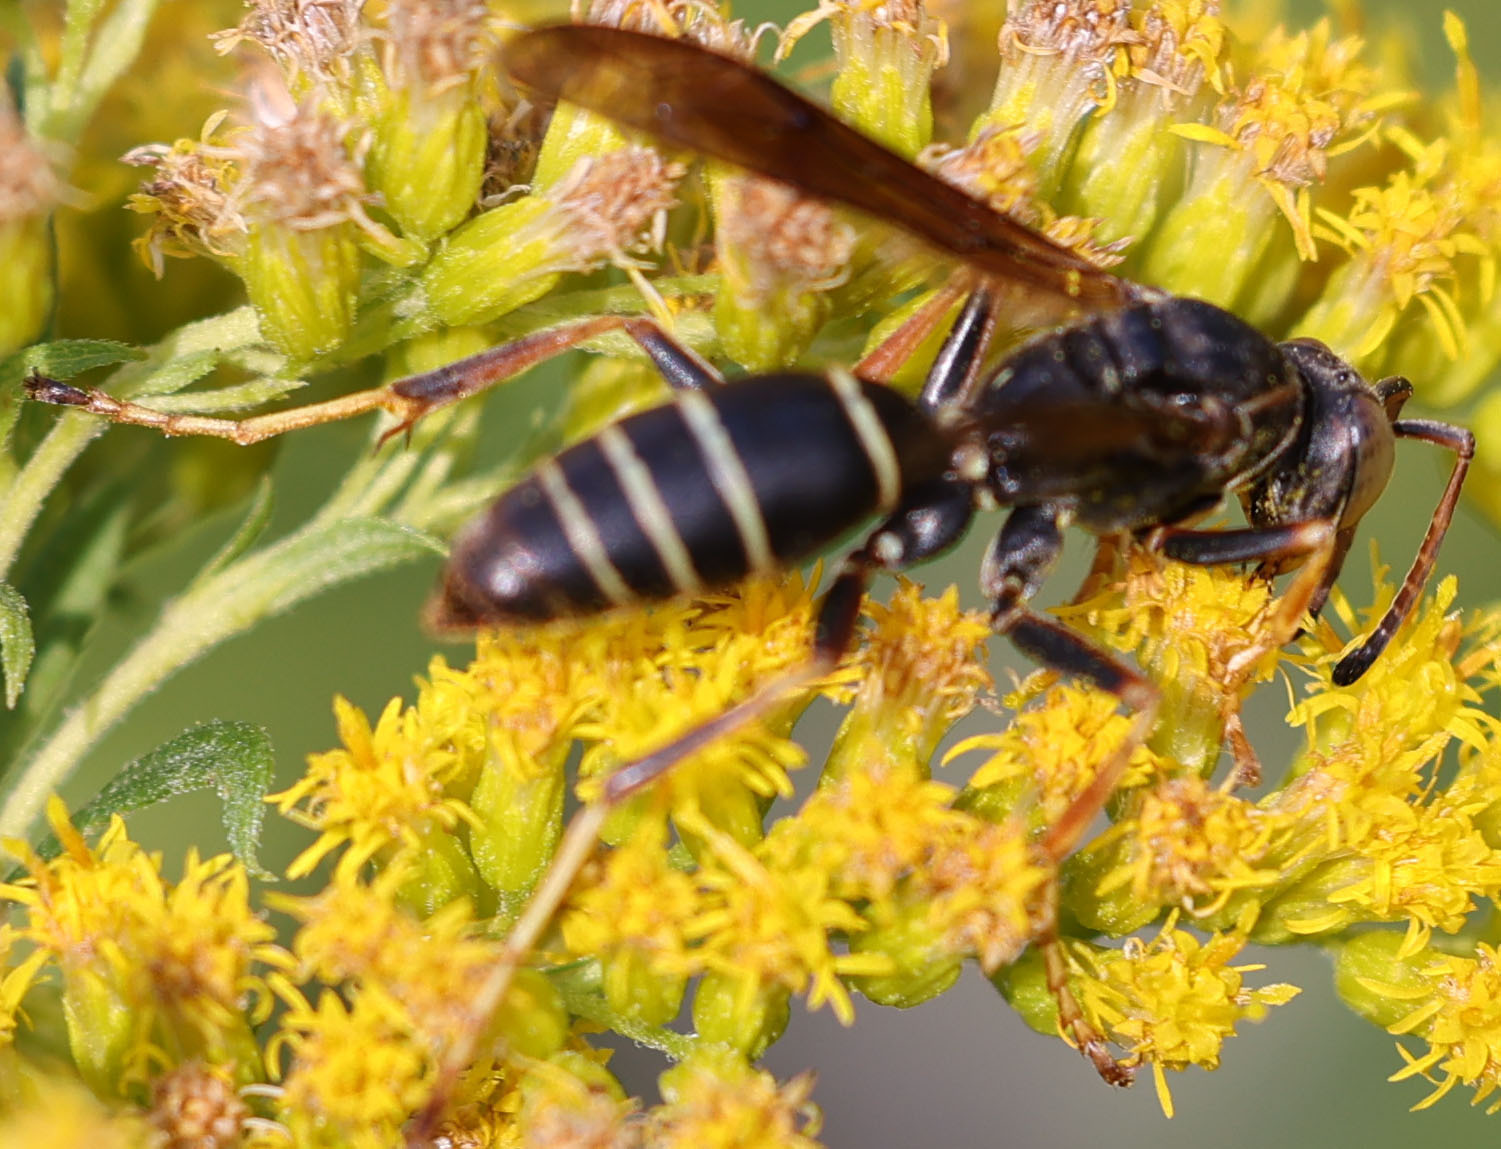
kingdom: Animalia
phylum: Arthropoda
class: Insecta
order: Hymenoptera
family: Eumenidae
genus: Polistes
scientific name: Polistes fuscatus
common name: Dark paper wasp
